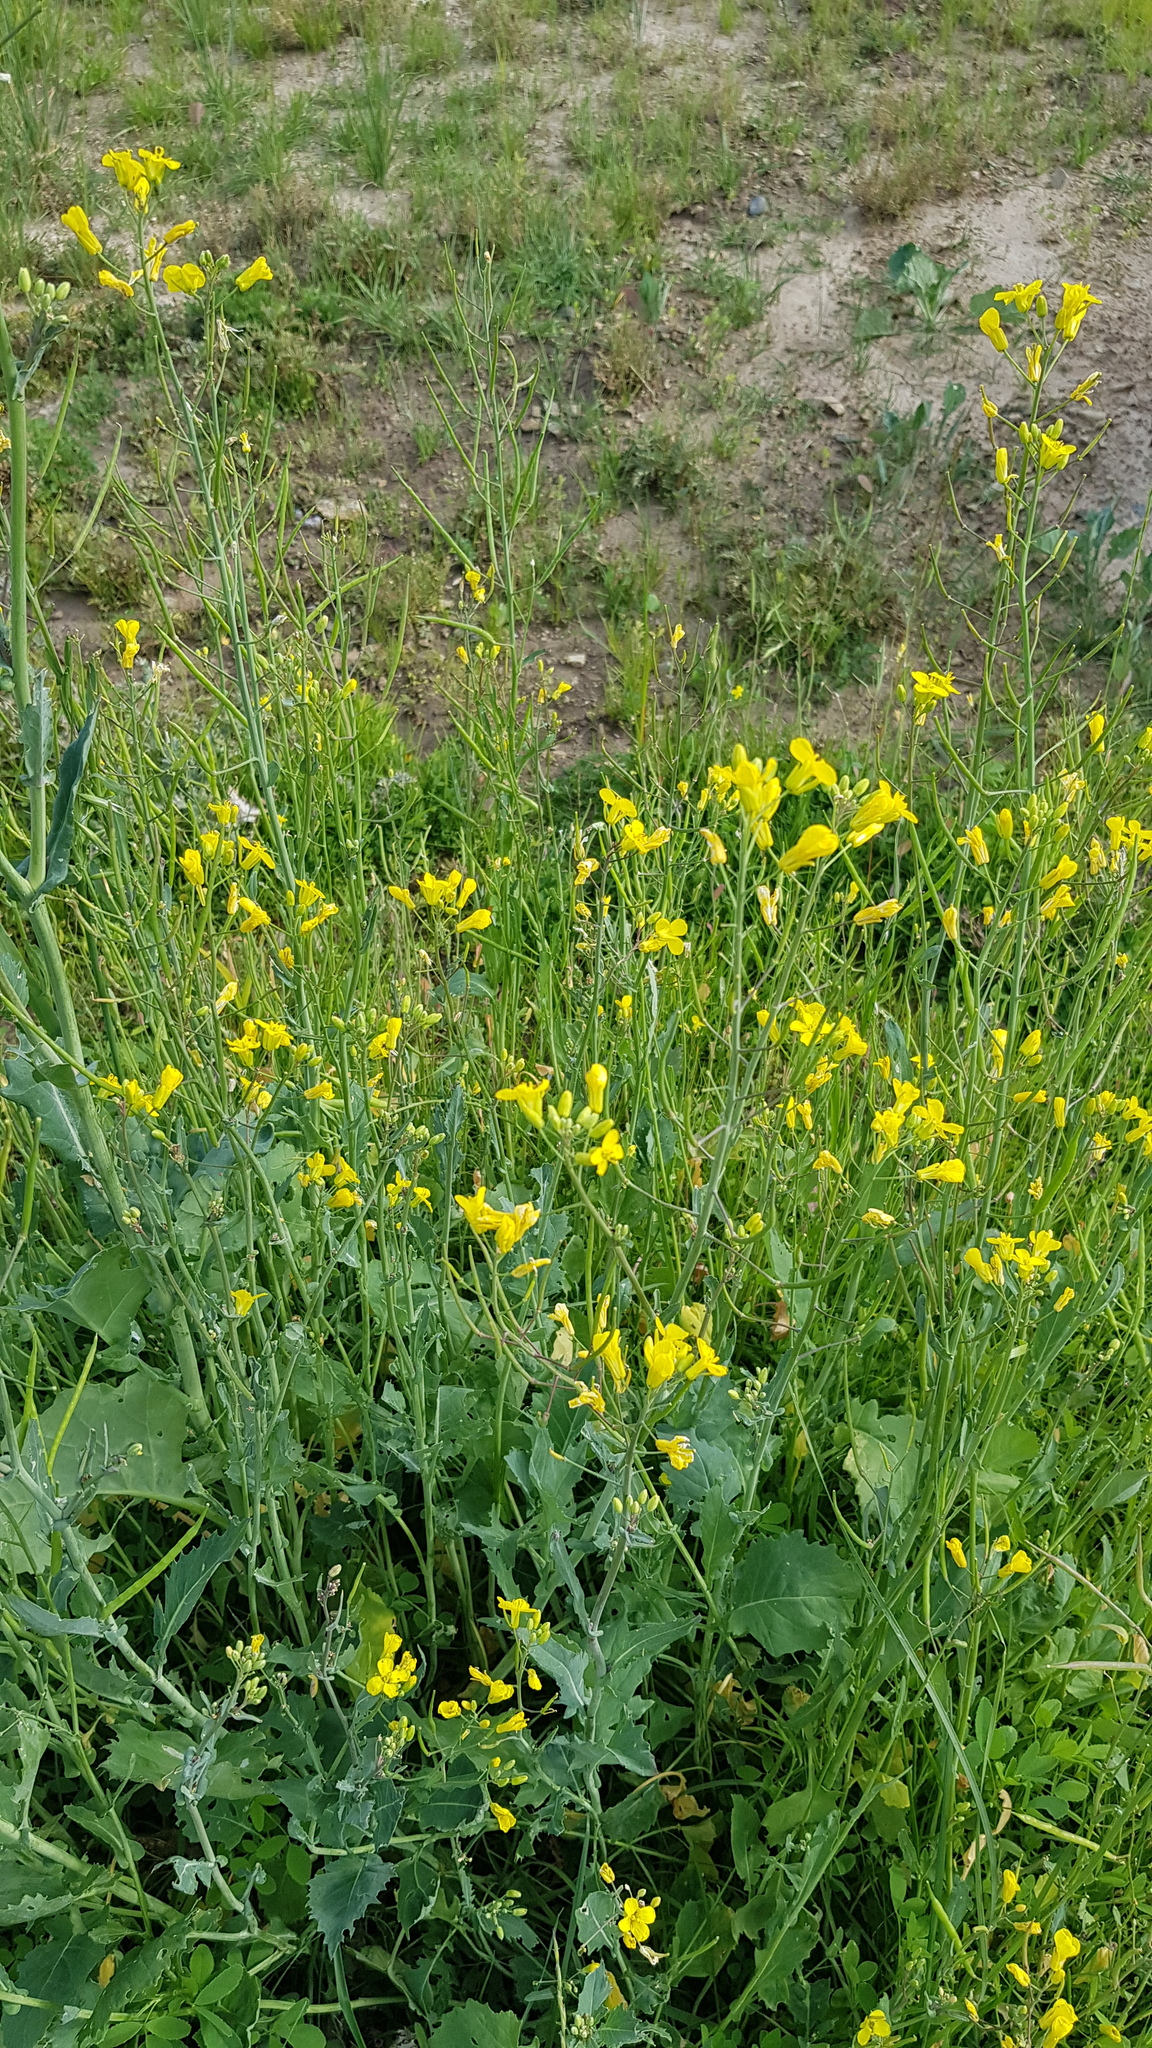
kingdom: Plantae
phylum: Tracheophyta
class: Magnoliopsida
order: Brassicales
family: Brassicaceae
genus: Brassica
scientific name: Brassica napus
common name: Rape
